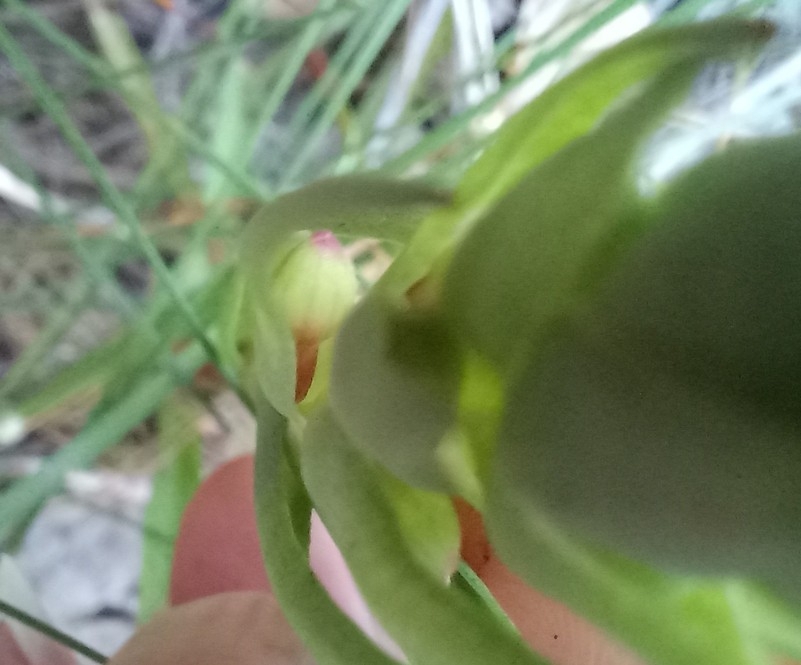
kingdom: Plantae
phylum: Tracheophyta
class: Liliopsida
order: Asparagales
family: Orchidaceae
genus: Disa
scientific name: Disa bracteata
